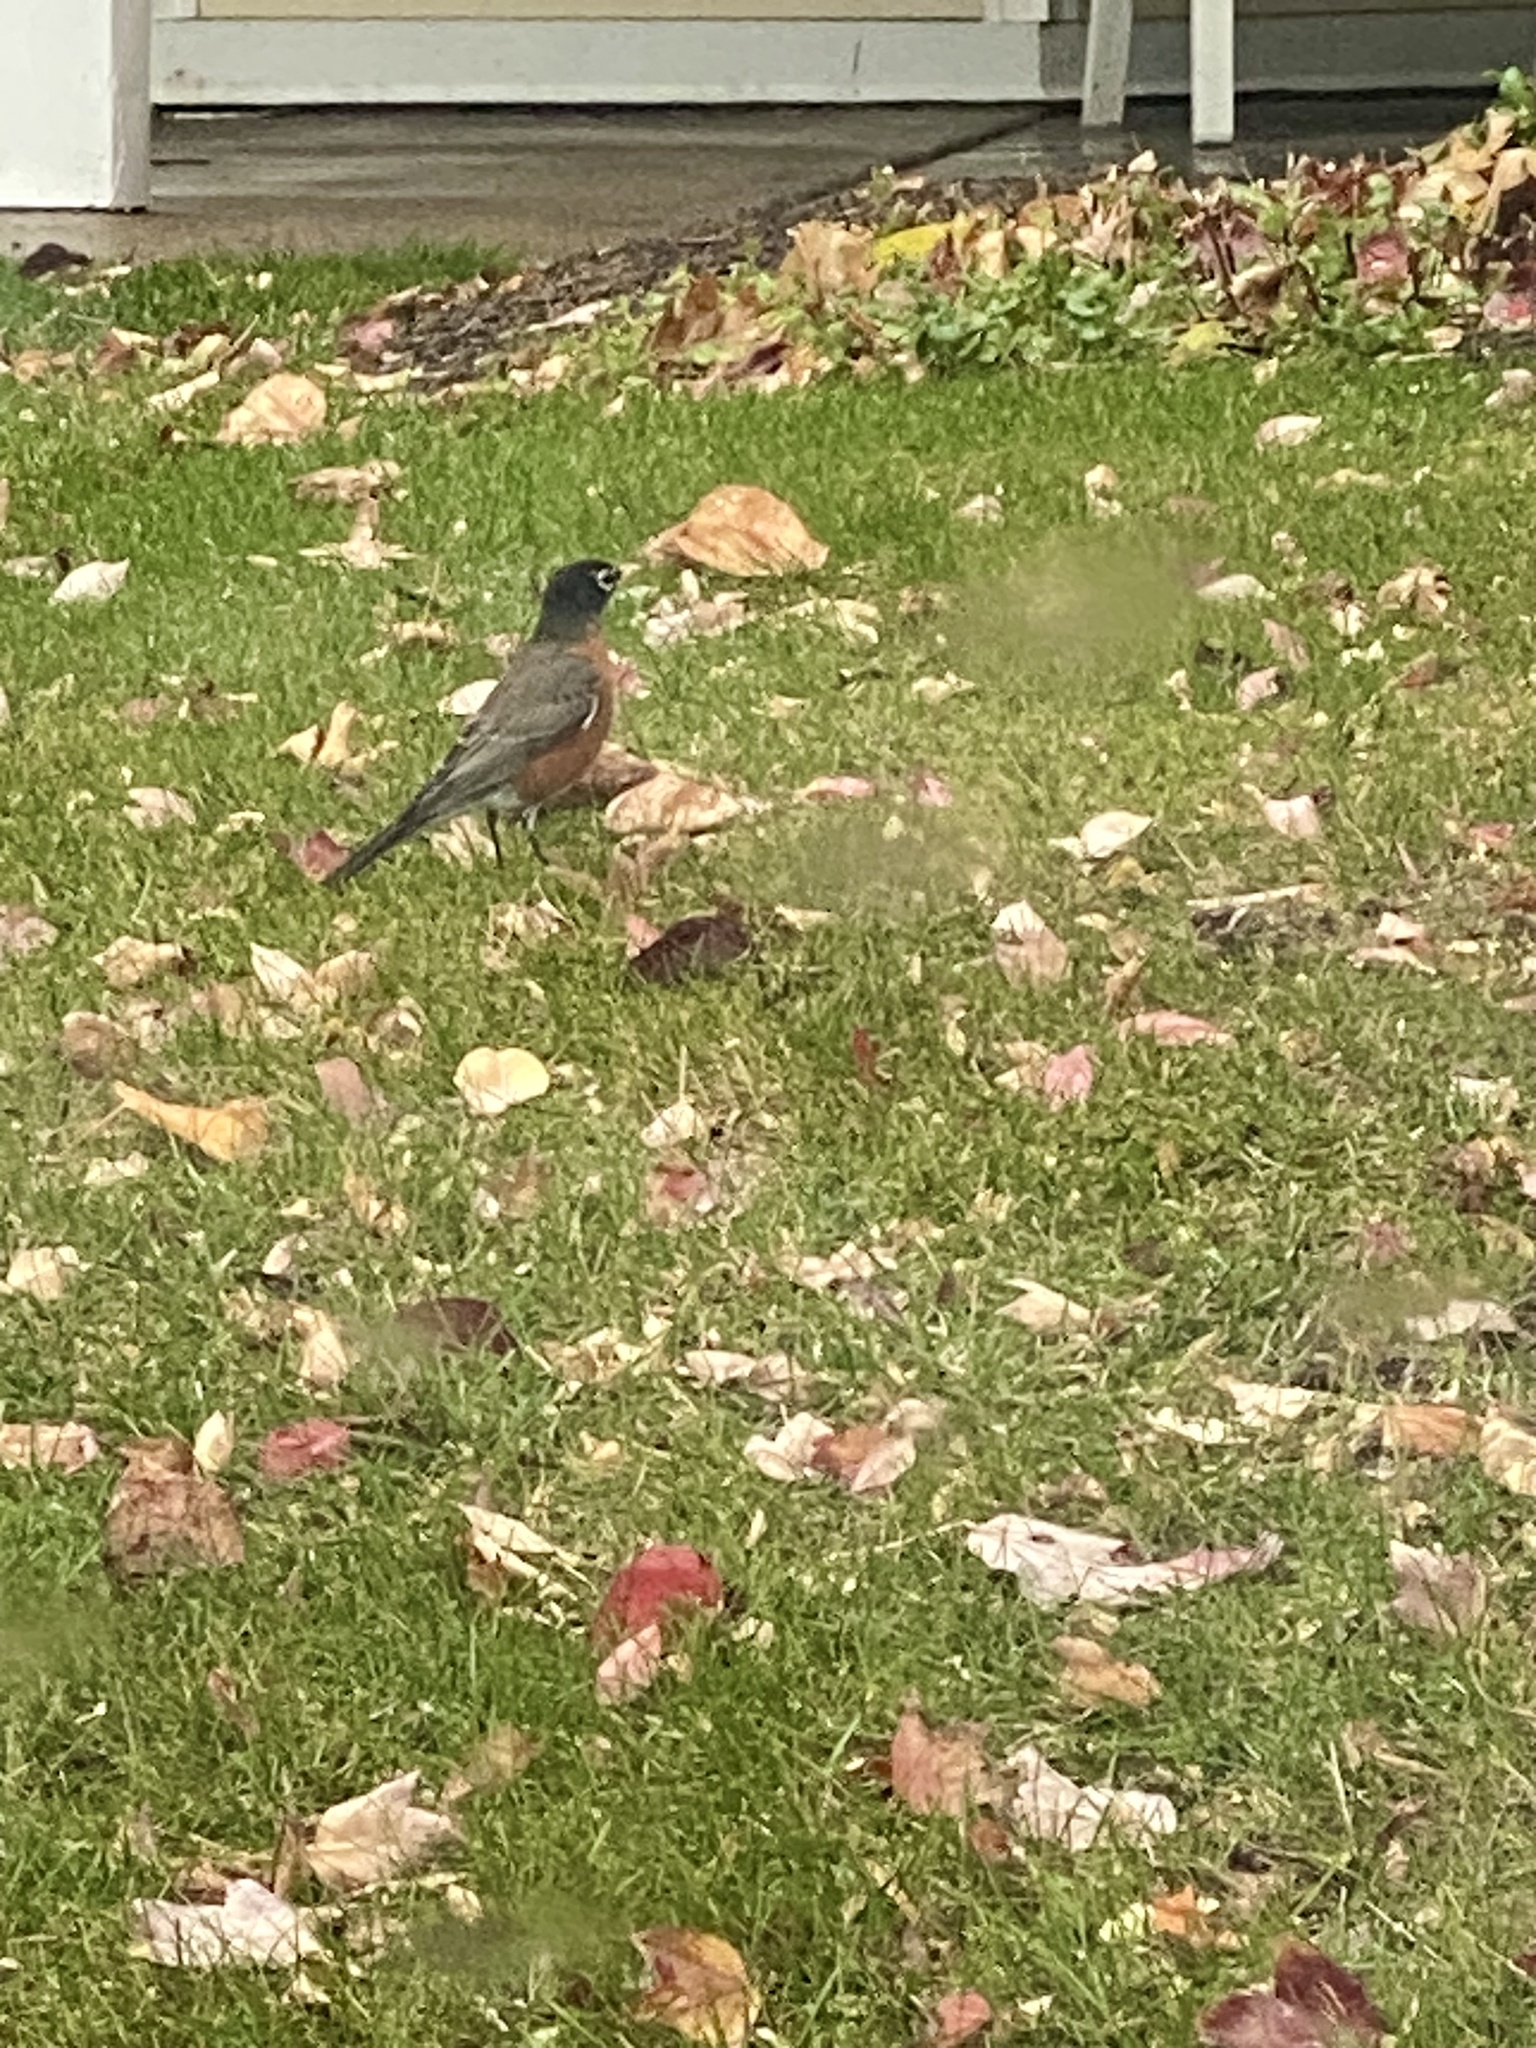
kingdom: Animalia
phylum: Chordata
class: Aves
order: Passeriformes
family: Turdidae
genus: Turdus
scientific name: Turdus migratorius
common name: American robin
